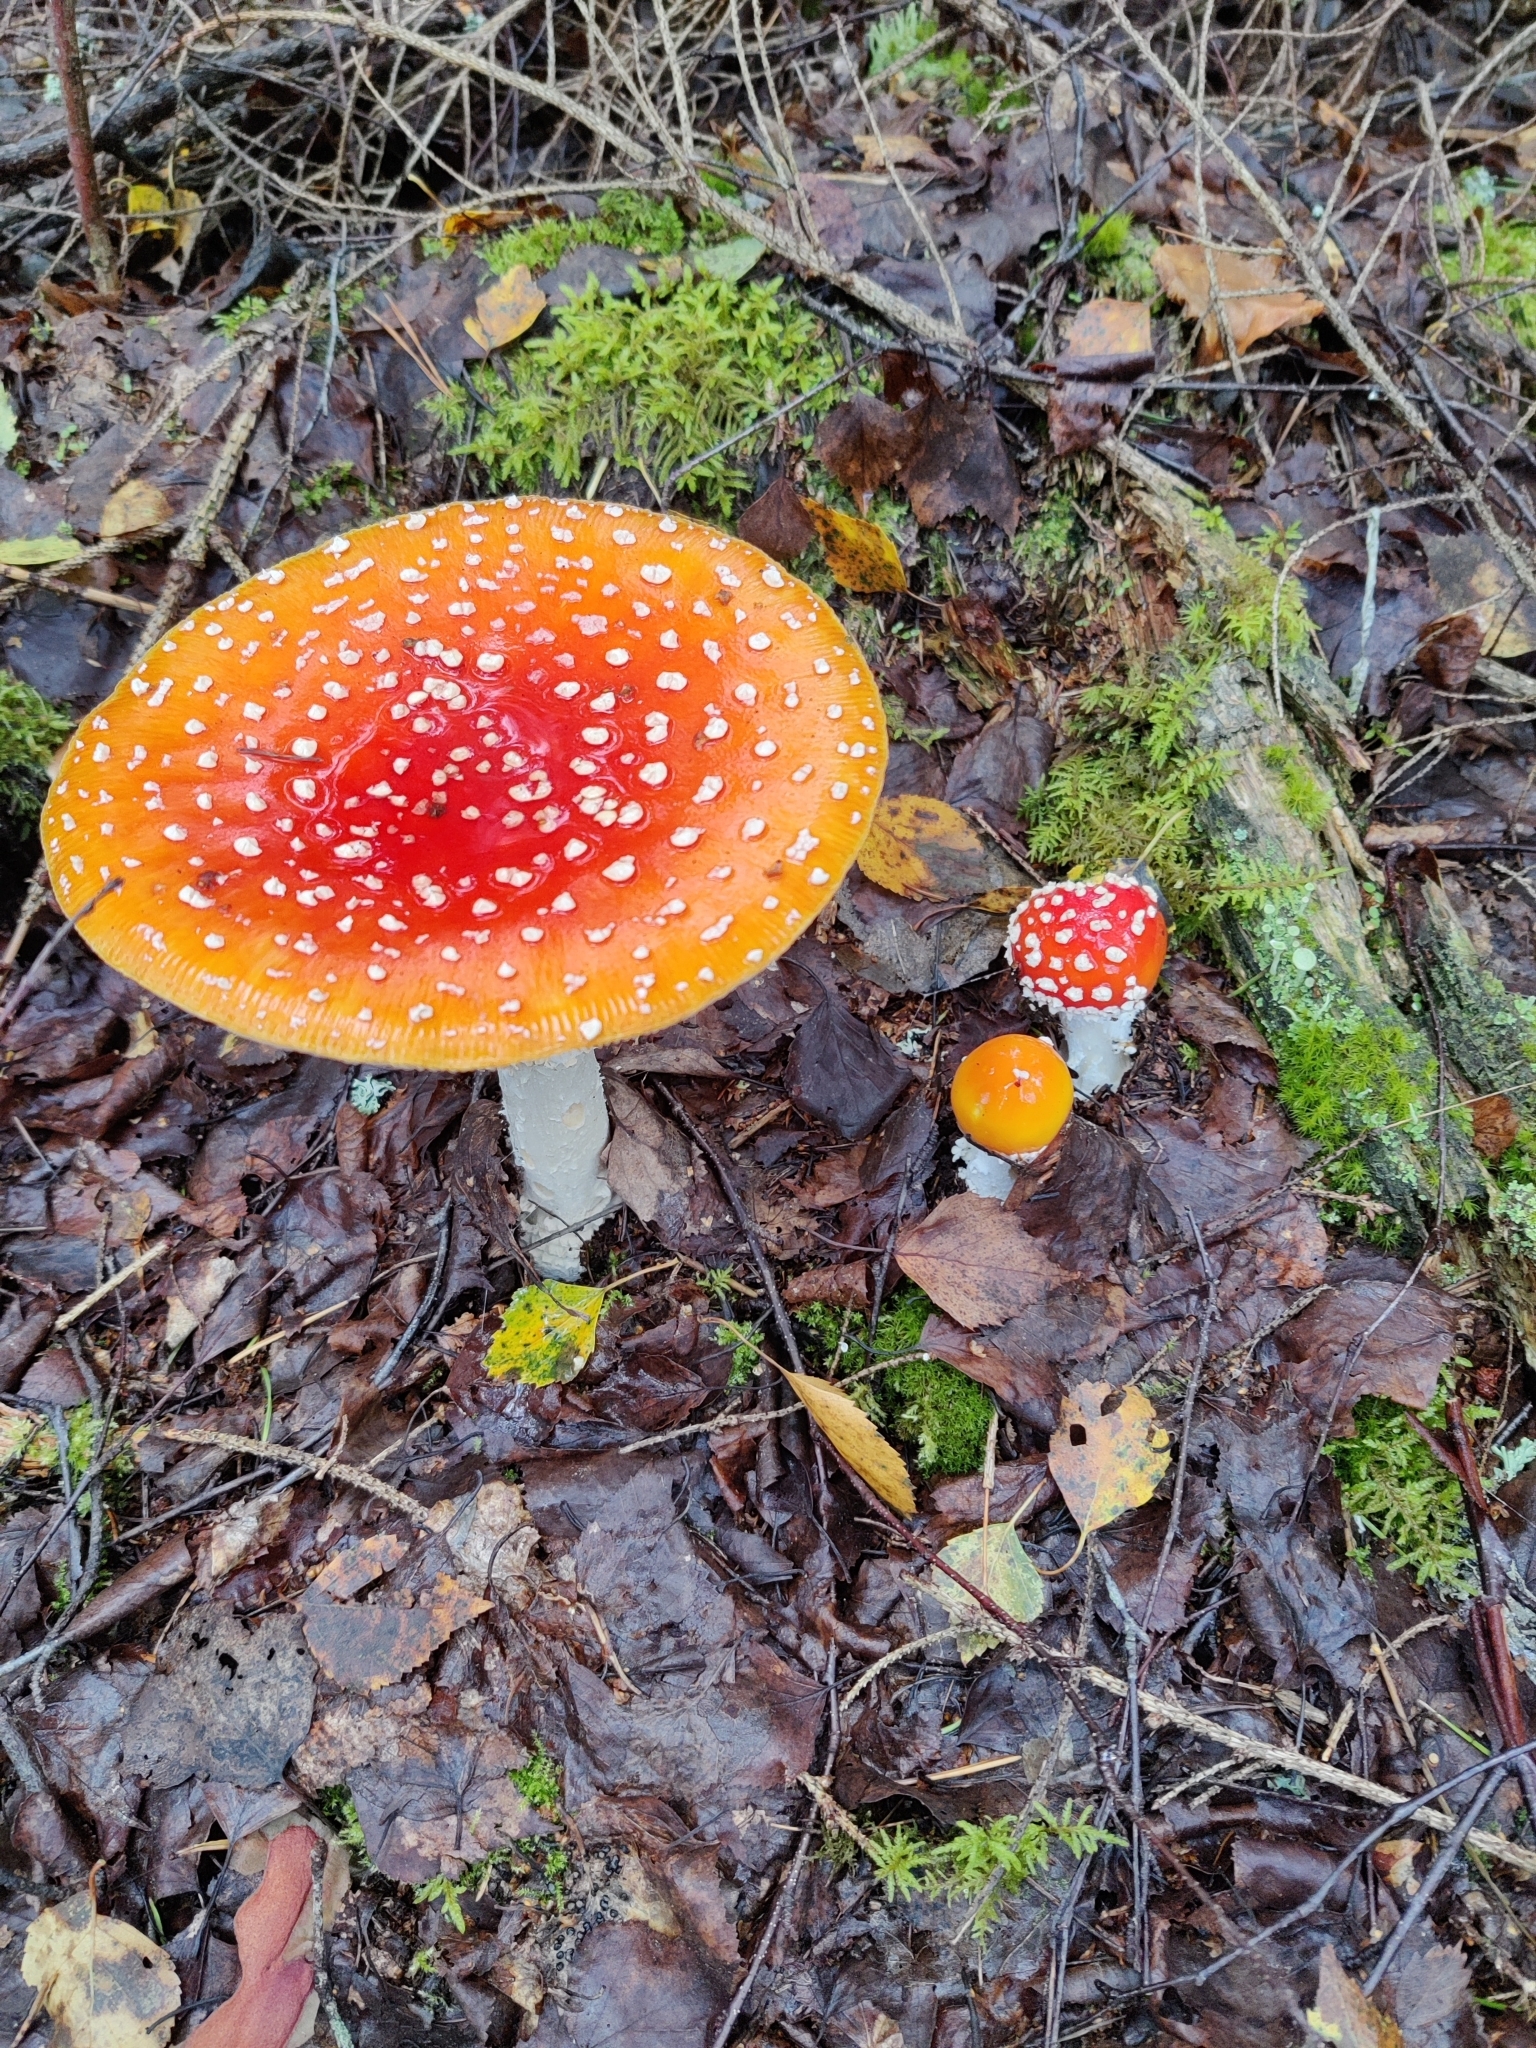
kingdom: Fungi
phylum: Basidiomycota
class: Agaricomycetes
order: Agaricales
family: Amanitaceae
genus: Amanita
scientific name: Amanita muscaria
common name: Fly agaric
